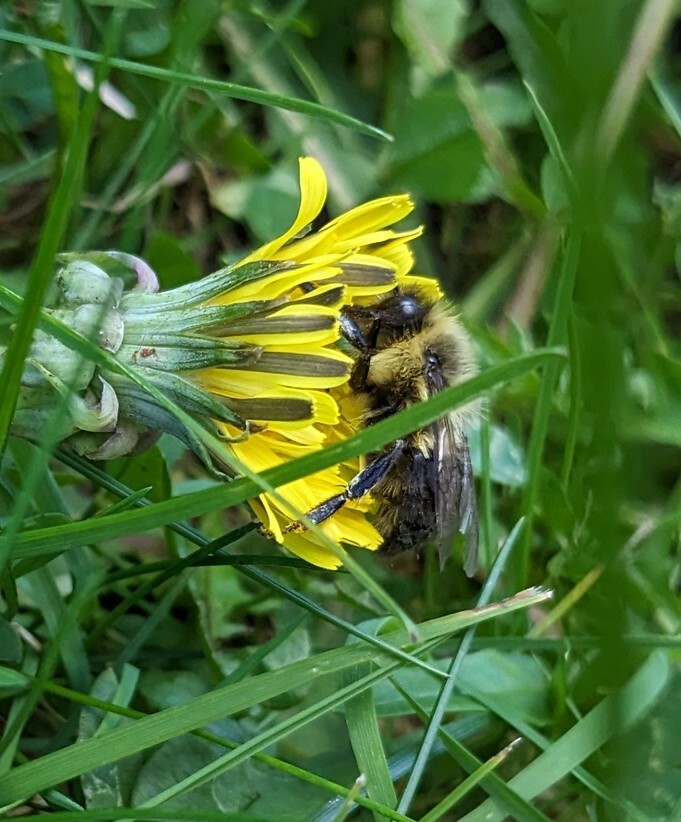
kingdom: Animalia
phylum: Arthropoda
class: Insecta
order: Hymenoptera
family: Apidae
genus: Bombus
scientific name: Bombus impatiens
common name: Common eastern bumble bee
